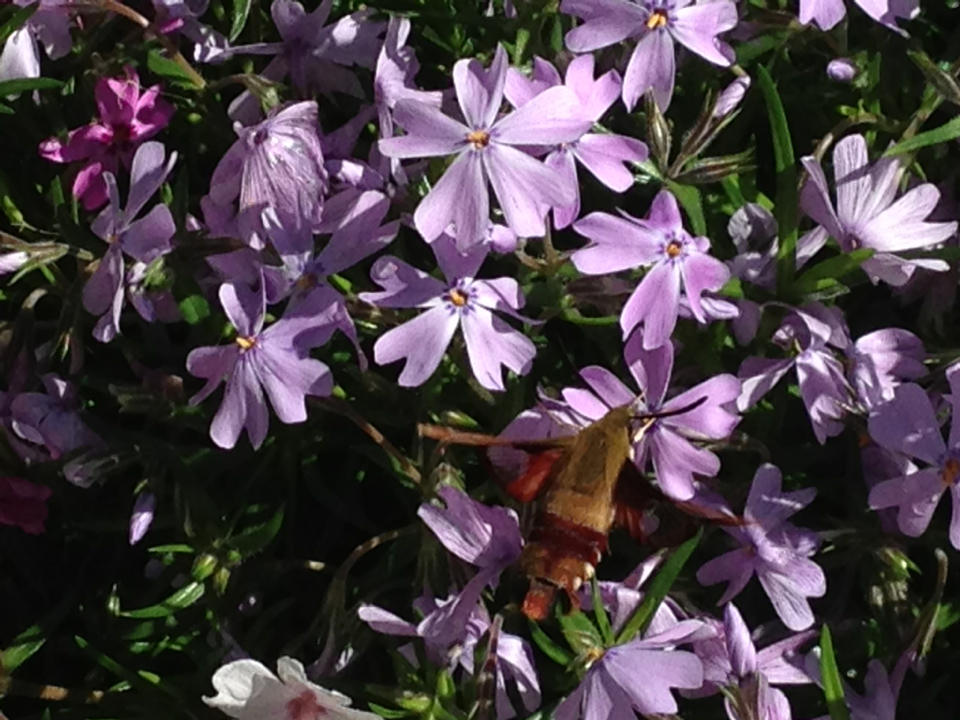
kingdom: Animalia
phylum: Arthropoda
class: Insecta
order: Lepidoptera
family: Sphingidae
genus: Hemaris
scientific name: Hemaris thysbe
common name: Common clear-wing
